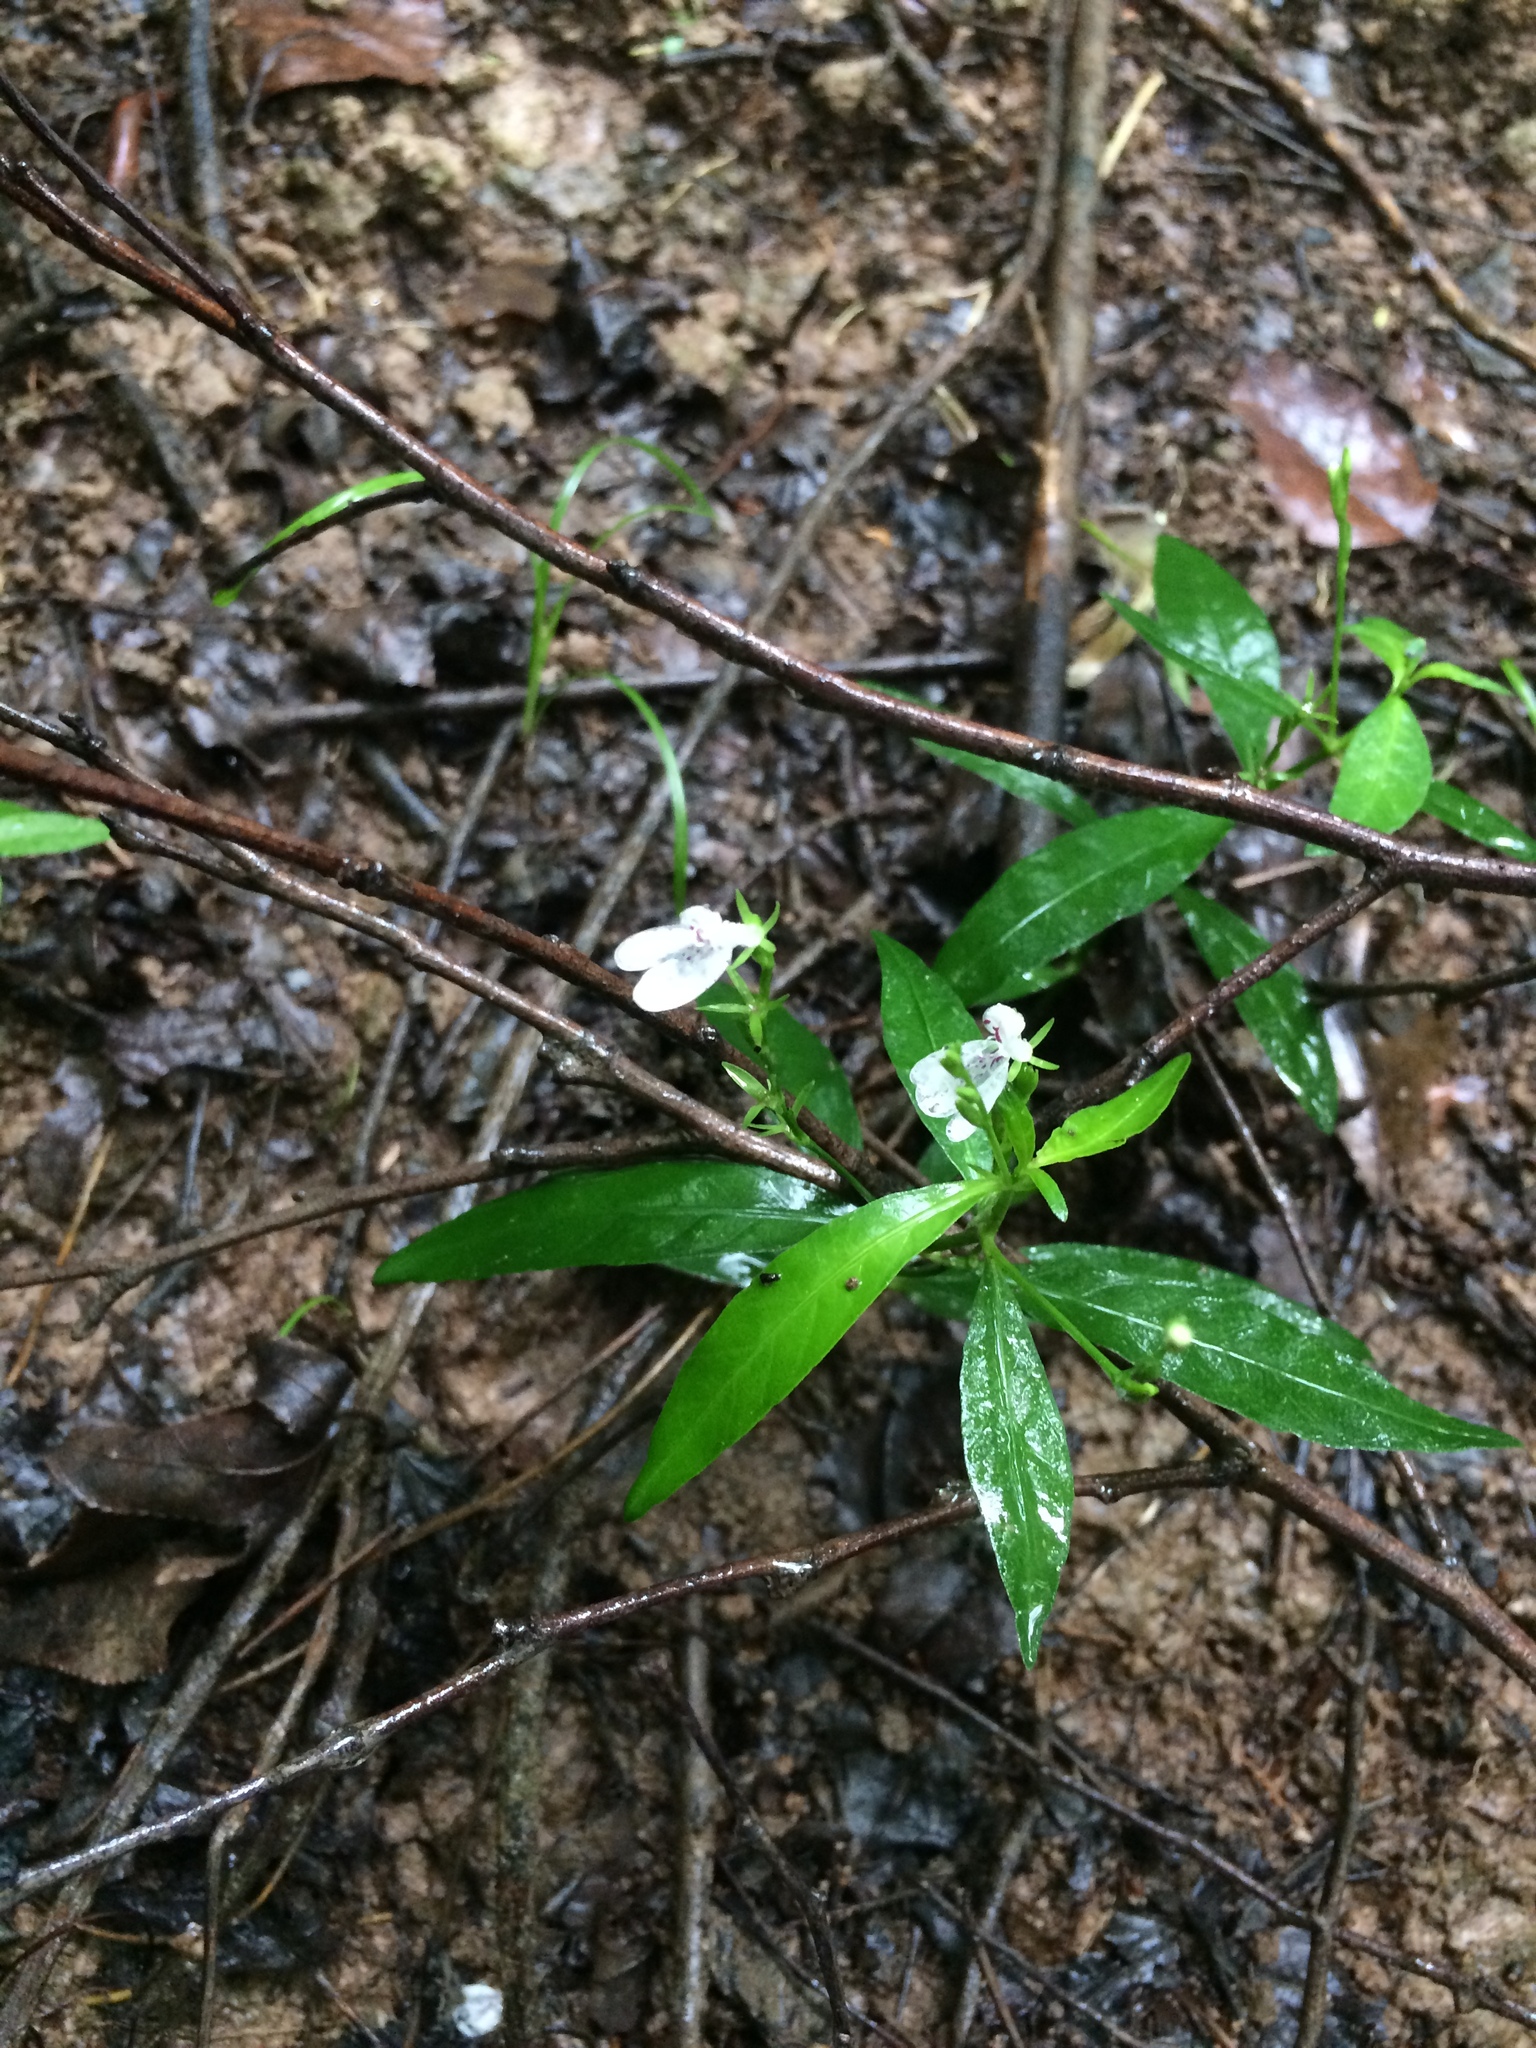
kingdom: Plantae
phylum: Tracheophyta
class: Magnoliopsida
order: Lamiales
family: Acanthaceae
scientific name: Acanthaceae
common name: Acanthaceae
